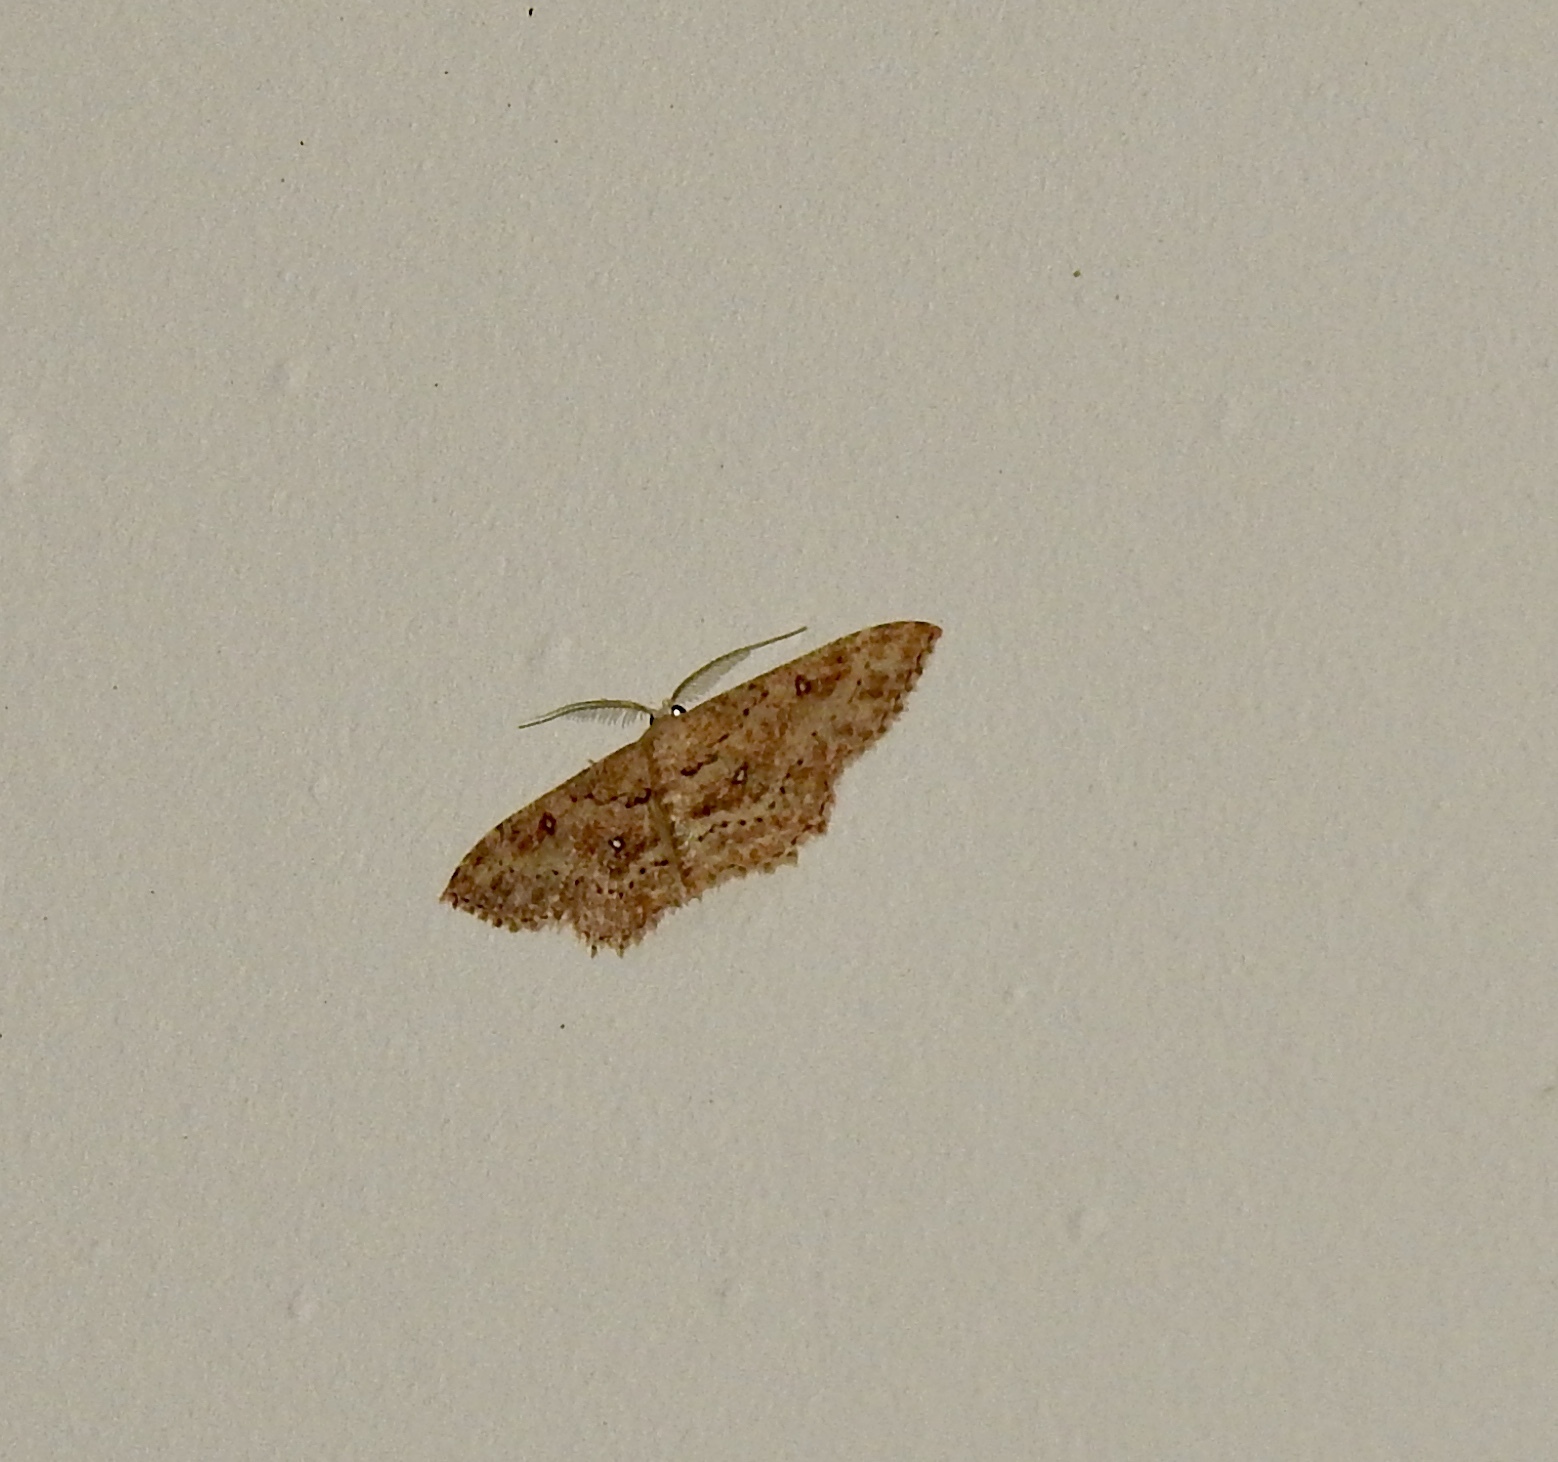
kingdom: Animalia
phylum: Arthropoda
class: Insecta
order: Lepidoptera
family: Geometridae
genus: Cyclophora
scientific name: Cyclophora nanaria
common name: Cankerworm
